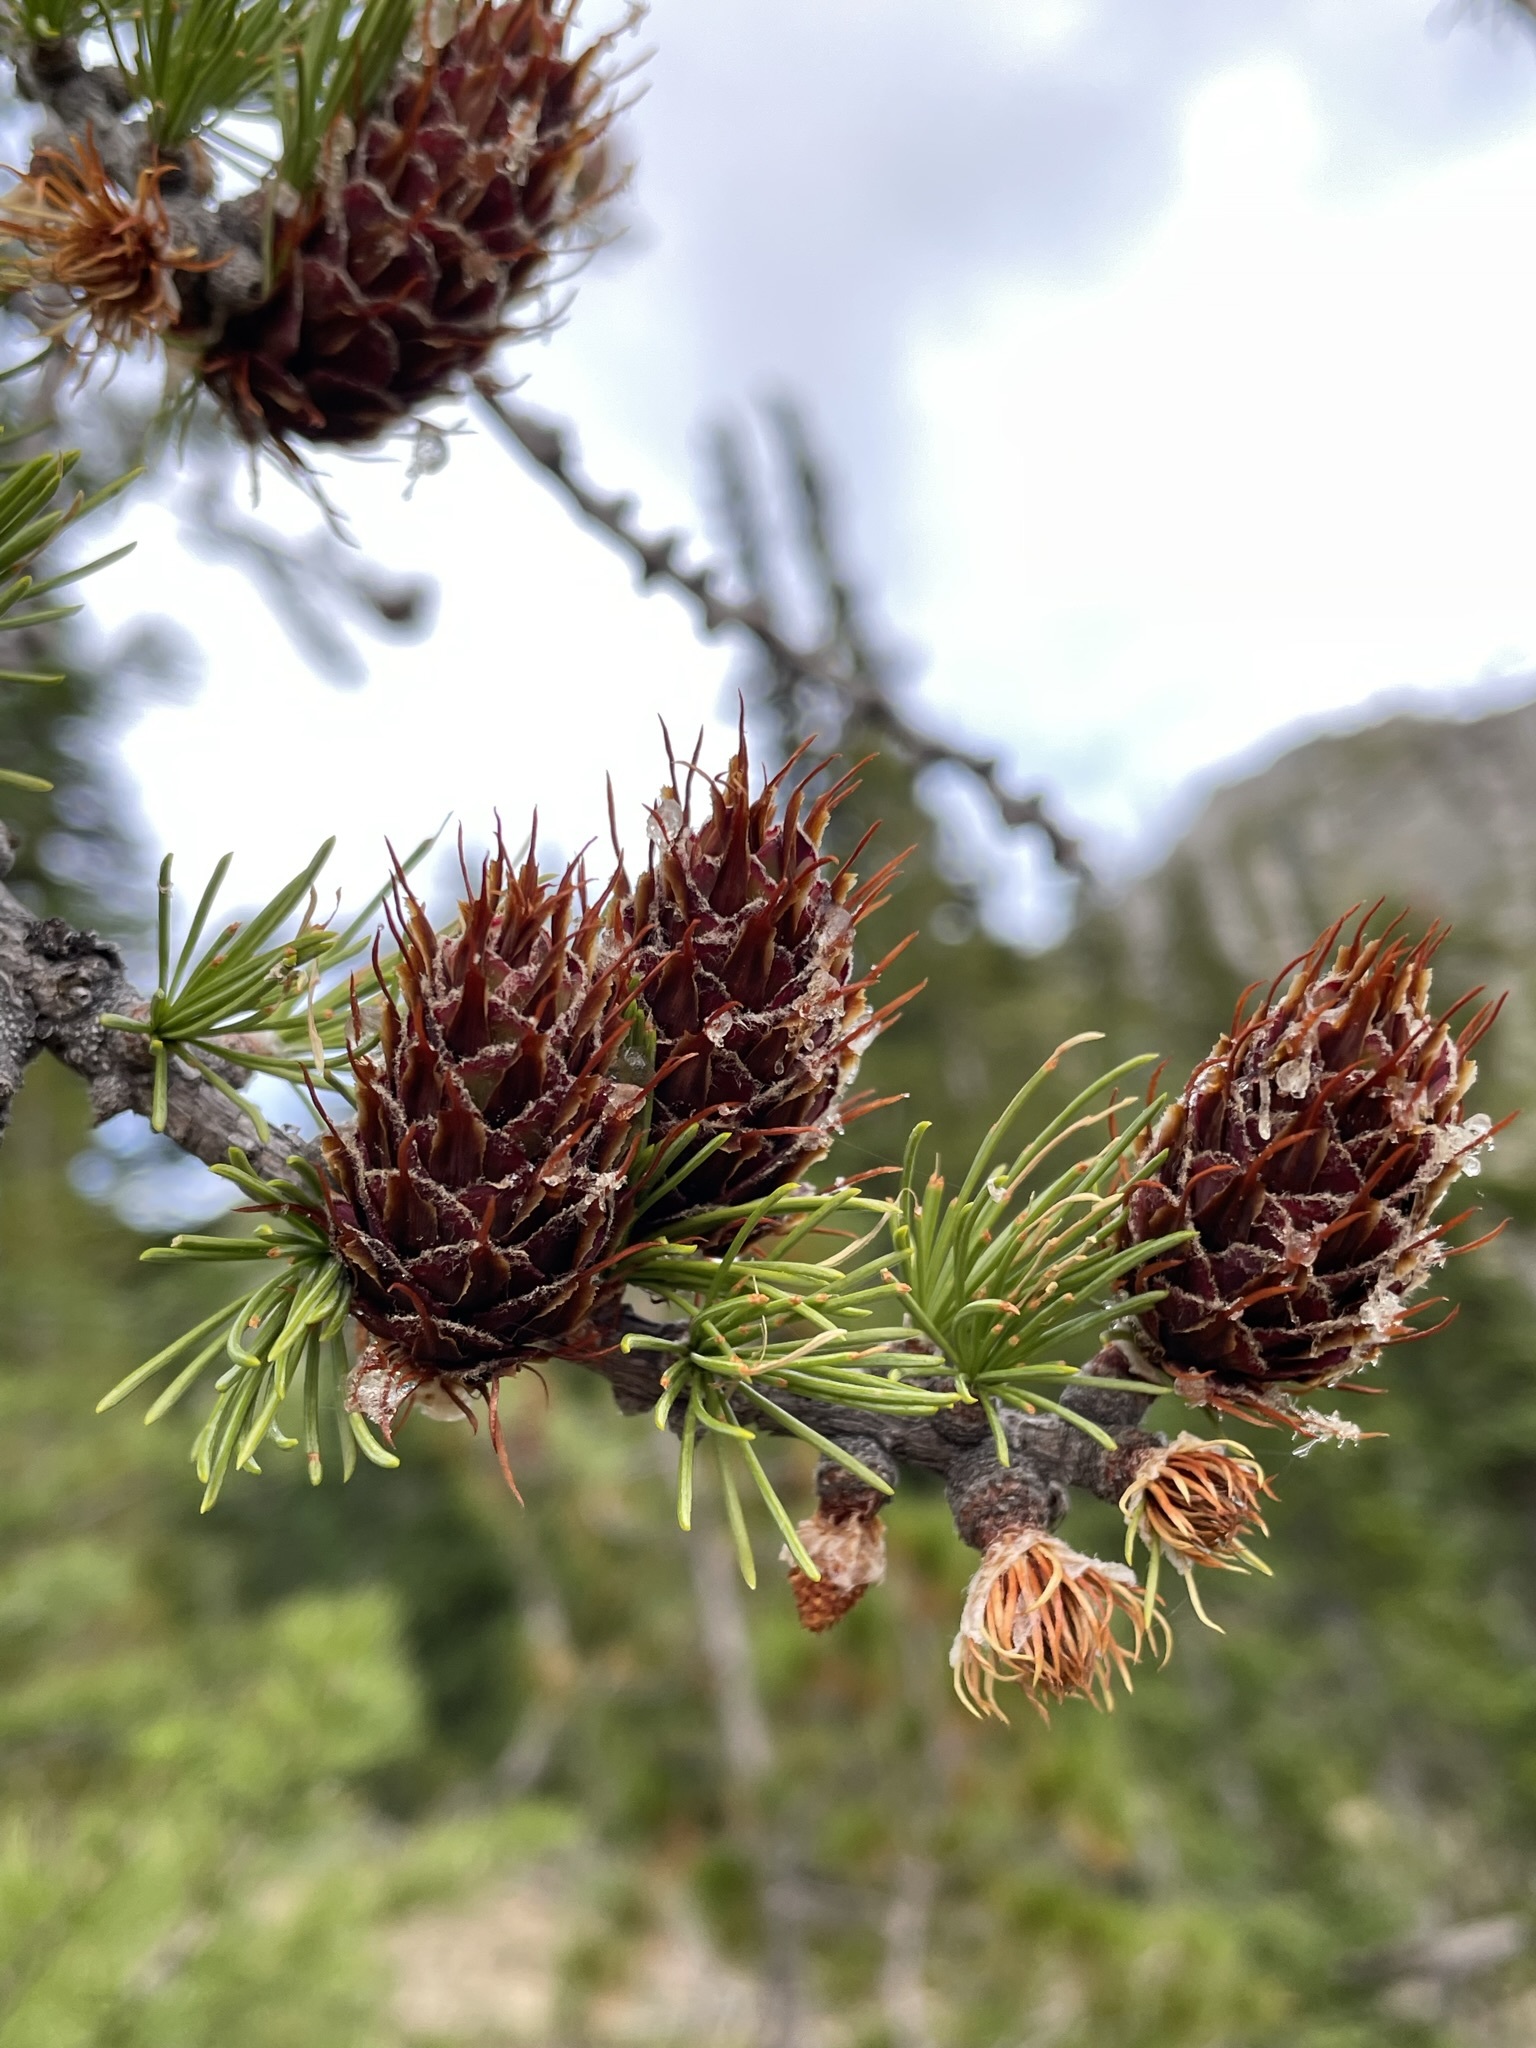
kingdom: Plantae
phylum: Tracheophyta
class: Pinopsida
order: Pinales
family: Pinaceae
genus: Larix
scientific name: Larix lyallii
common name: Alpine larch
